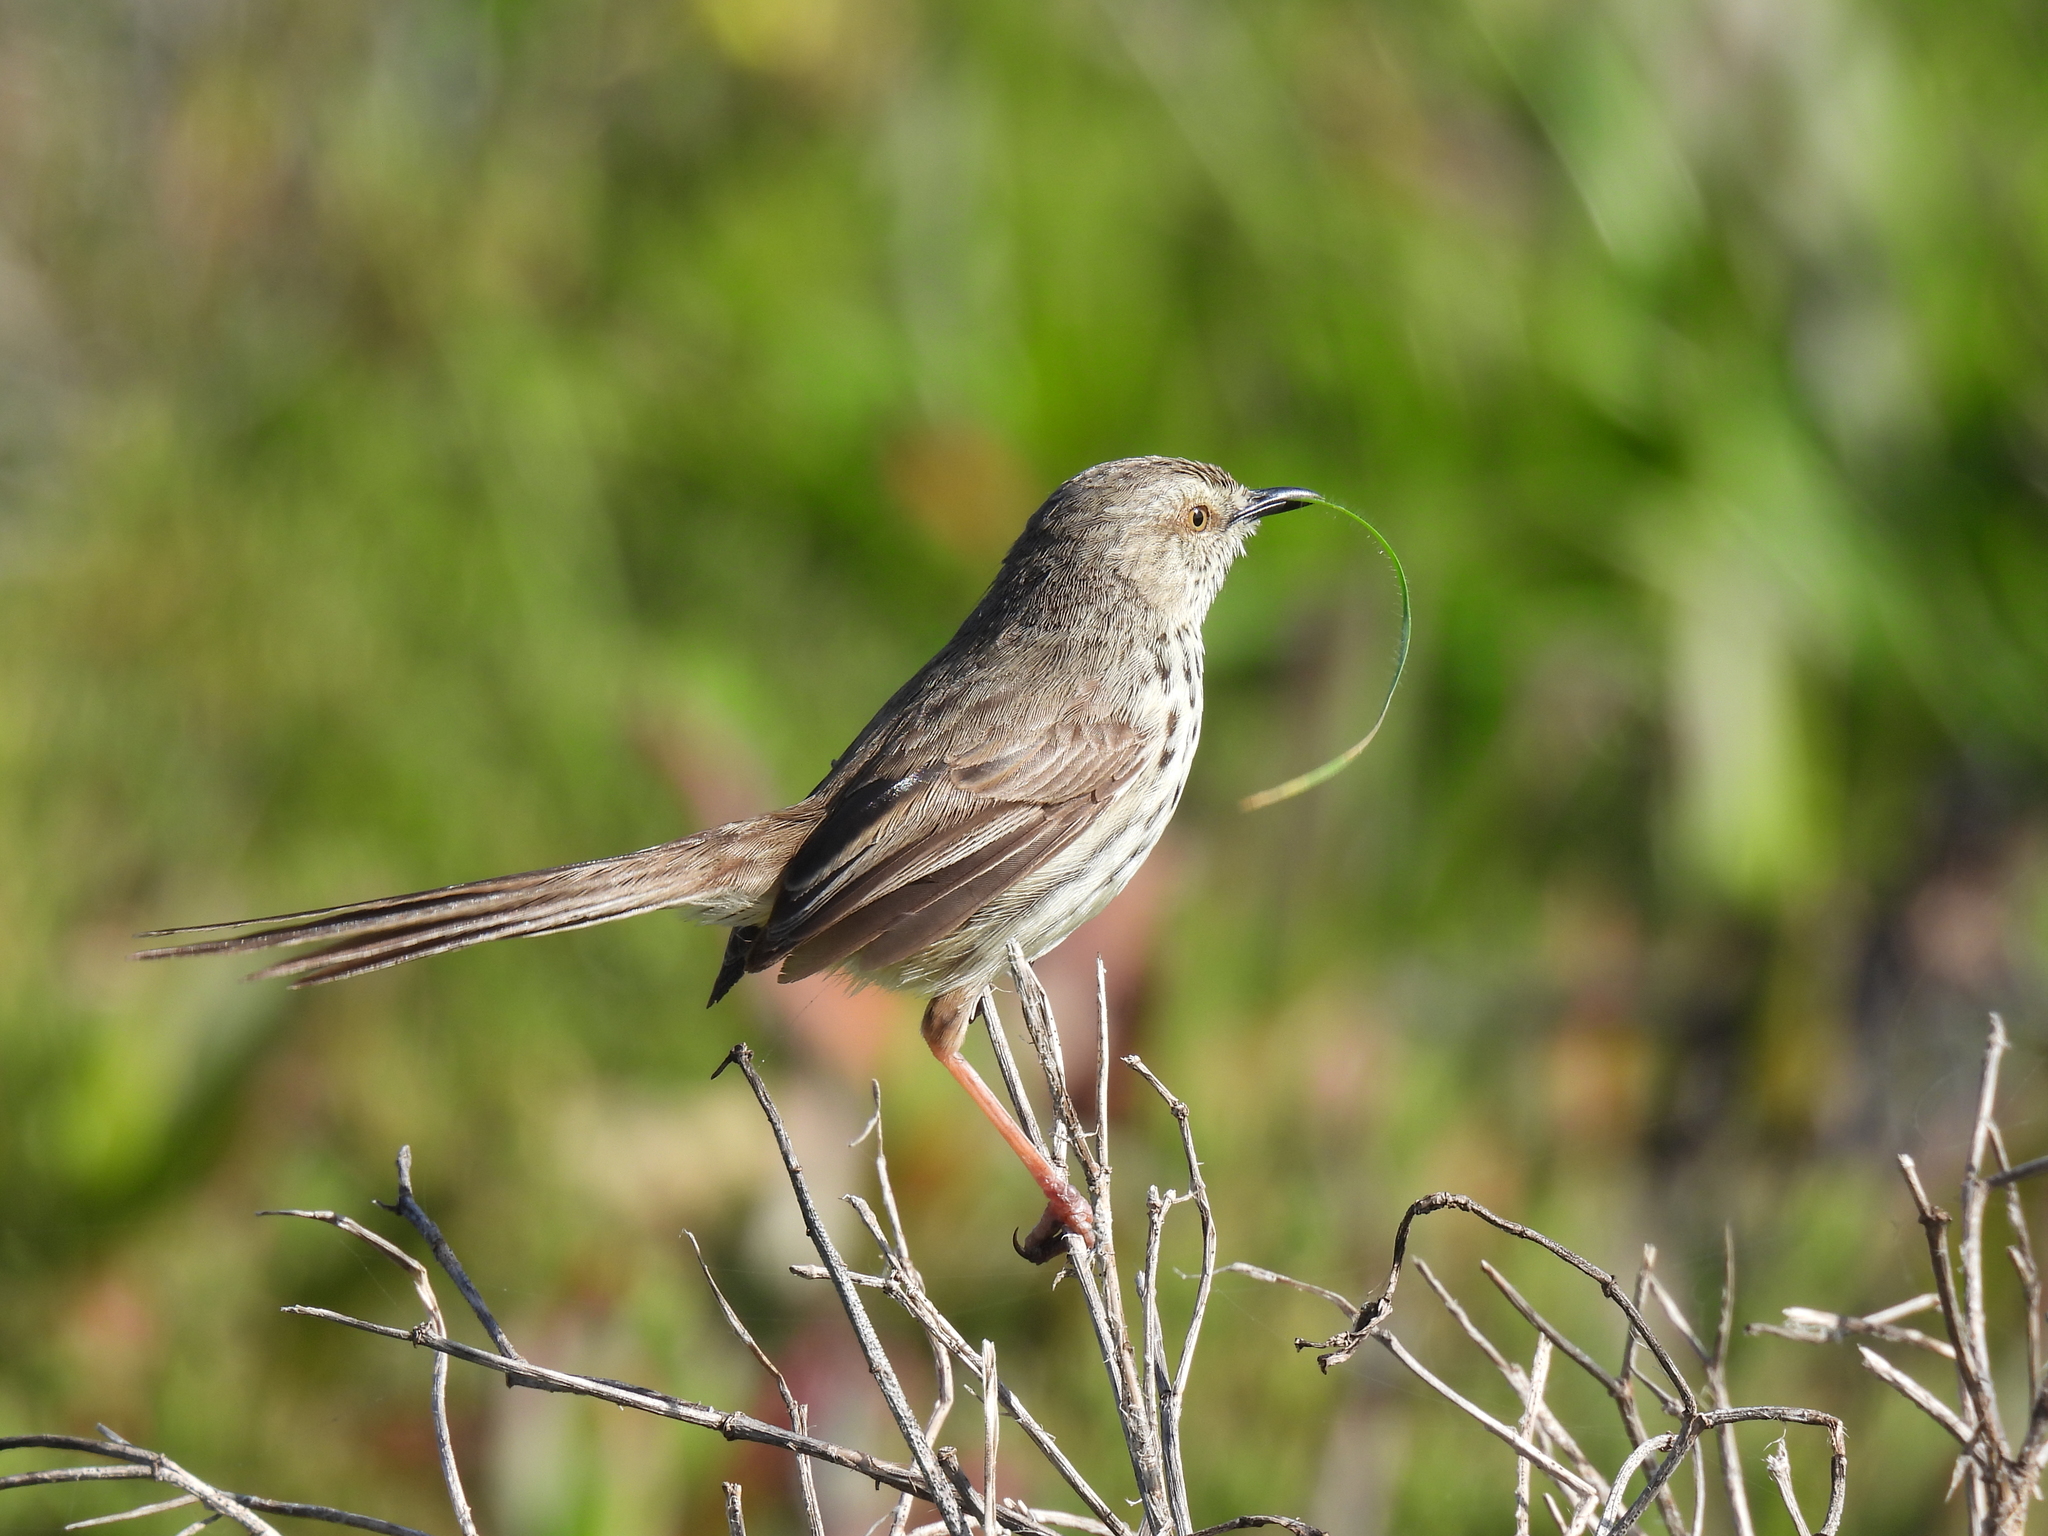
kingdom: Animalia
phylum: Chordata
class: Aves
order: Passeriformes
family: Cisticolidae
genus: Prinia
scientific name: Prinia maculosa
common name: Karoo prinia
